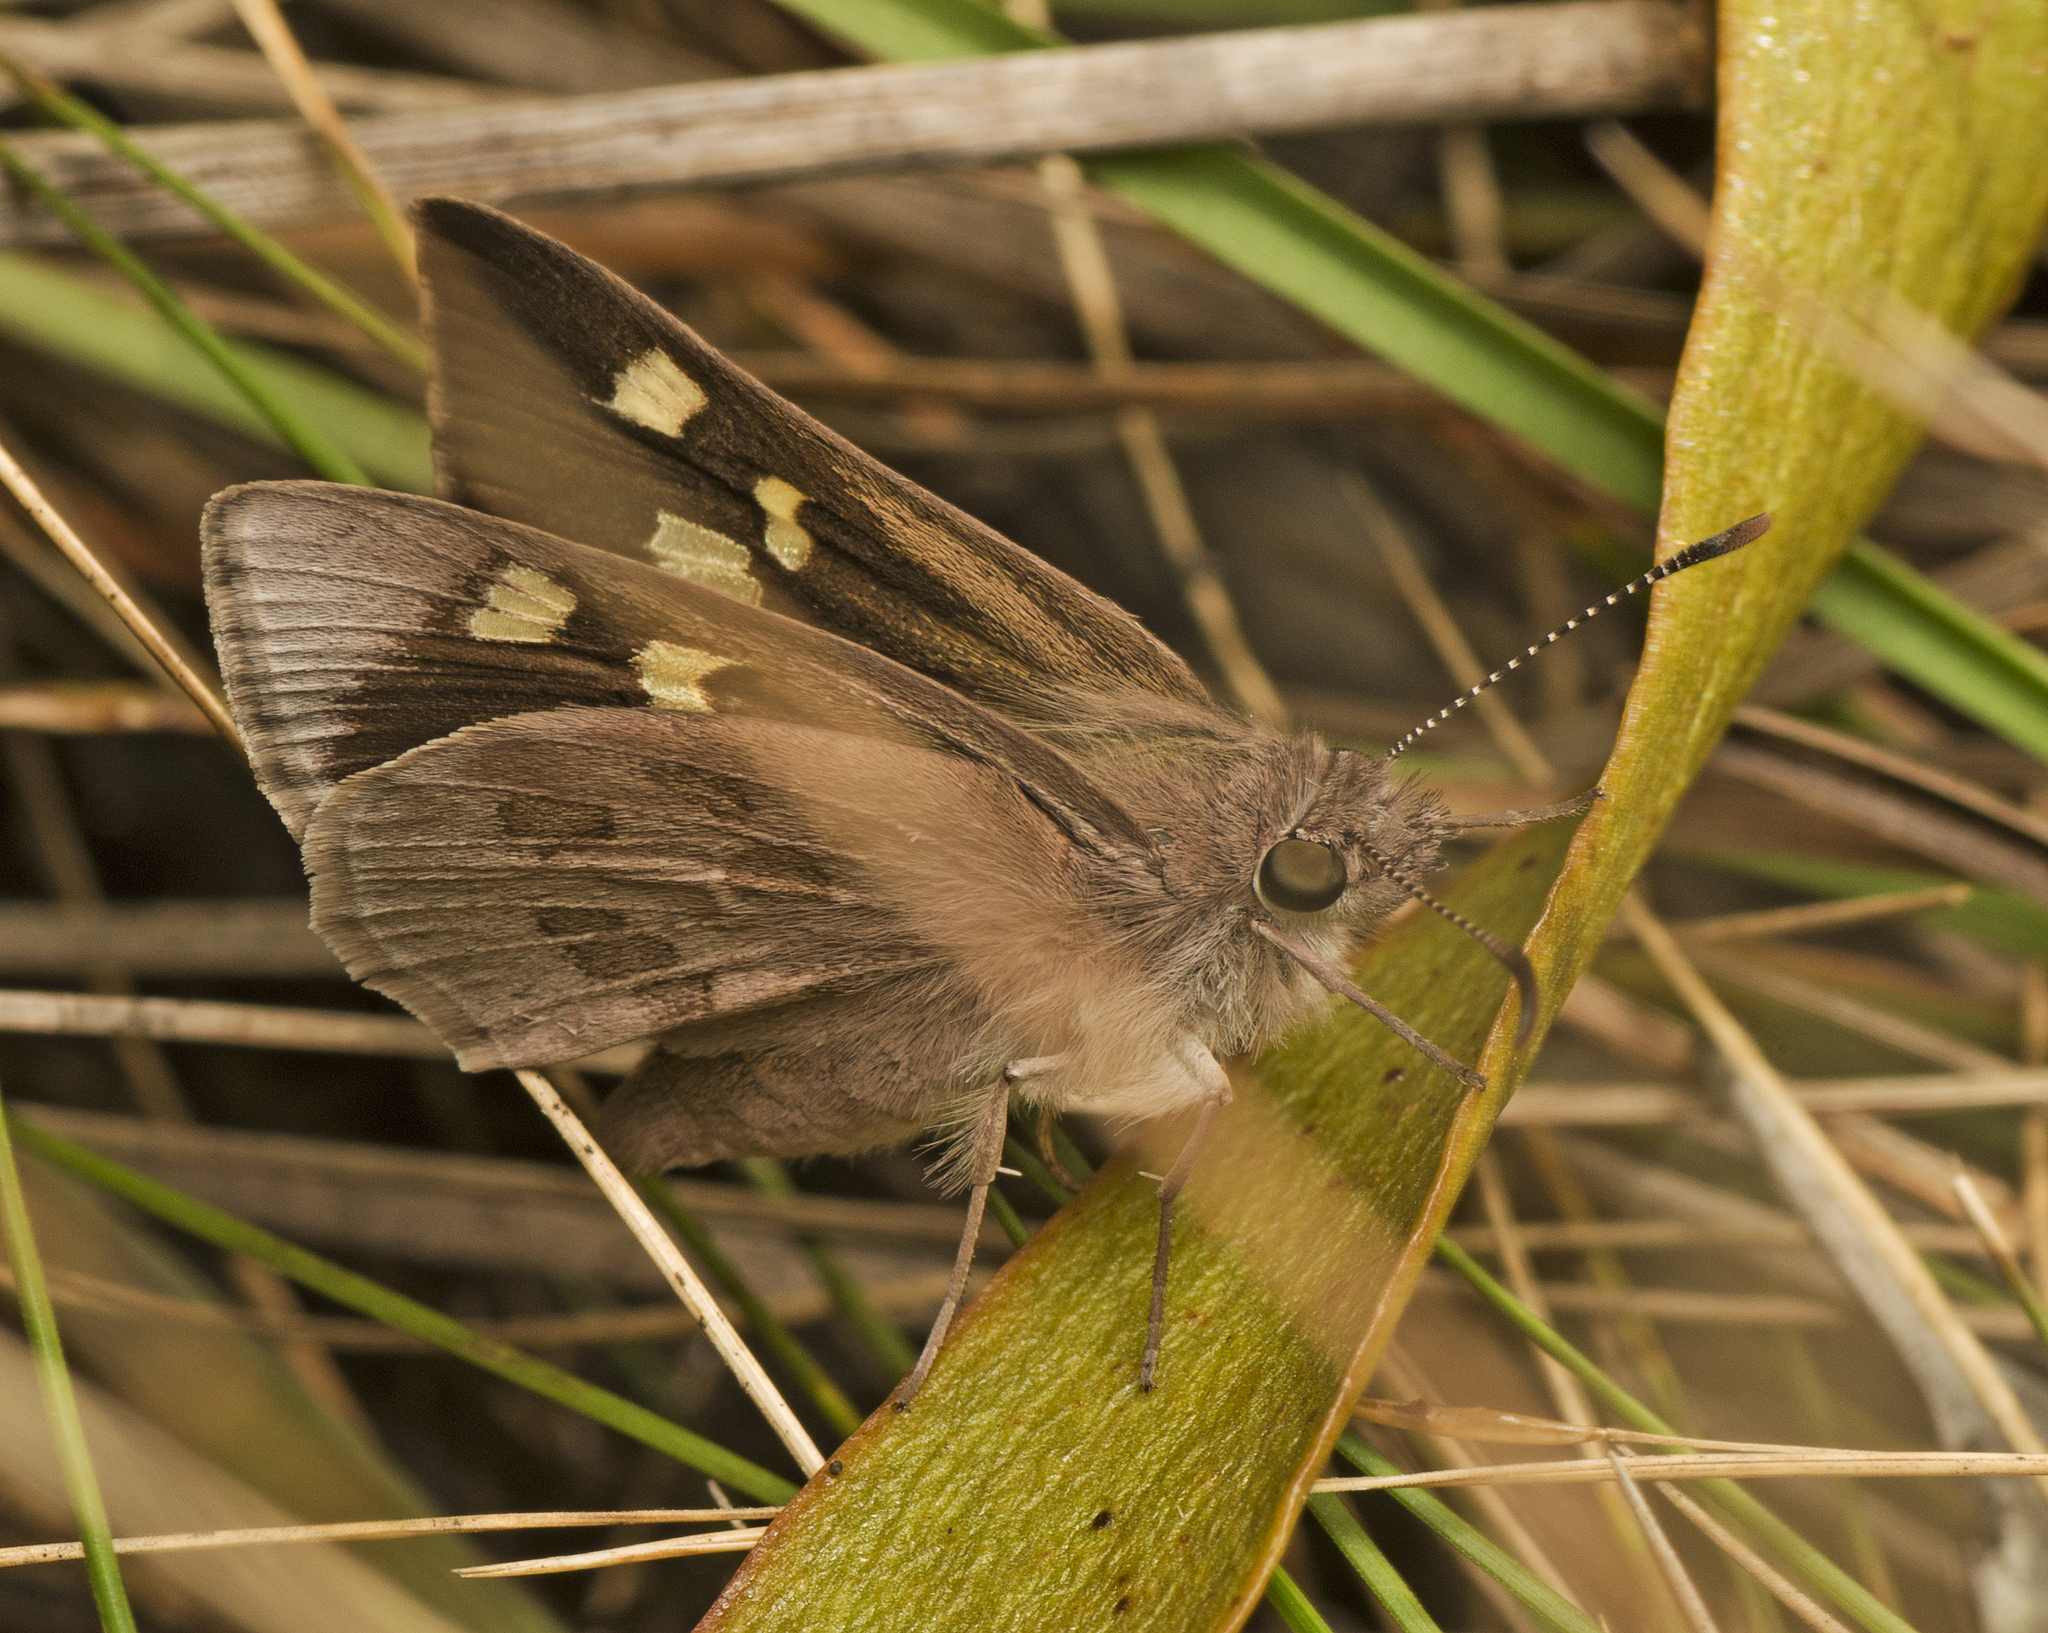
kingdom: Animalia
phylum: Arthropoda
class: Insecta
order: Lepidoptera
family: Hesperiidae
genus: Mesodina
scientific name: Mesodina halyzia
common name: Eastern iris-skipper
